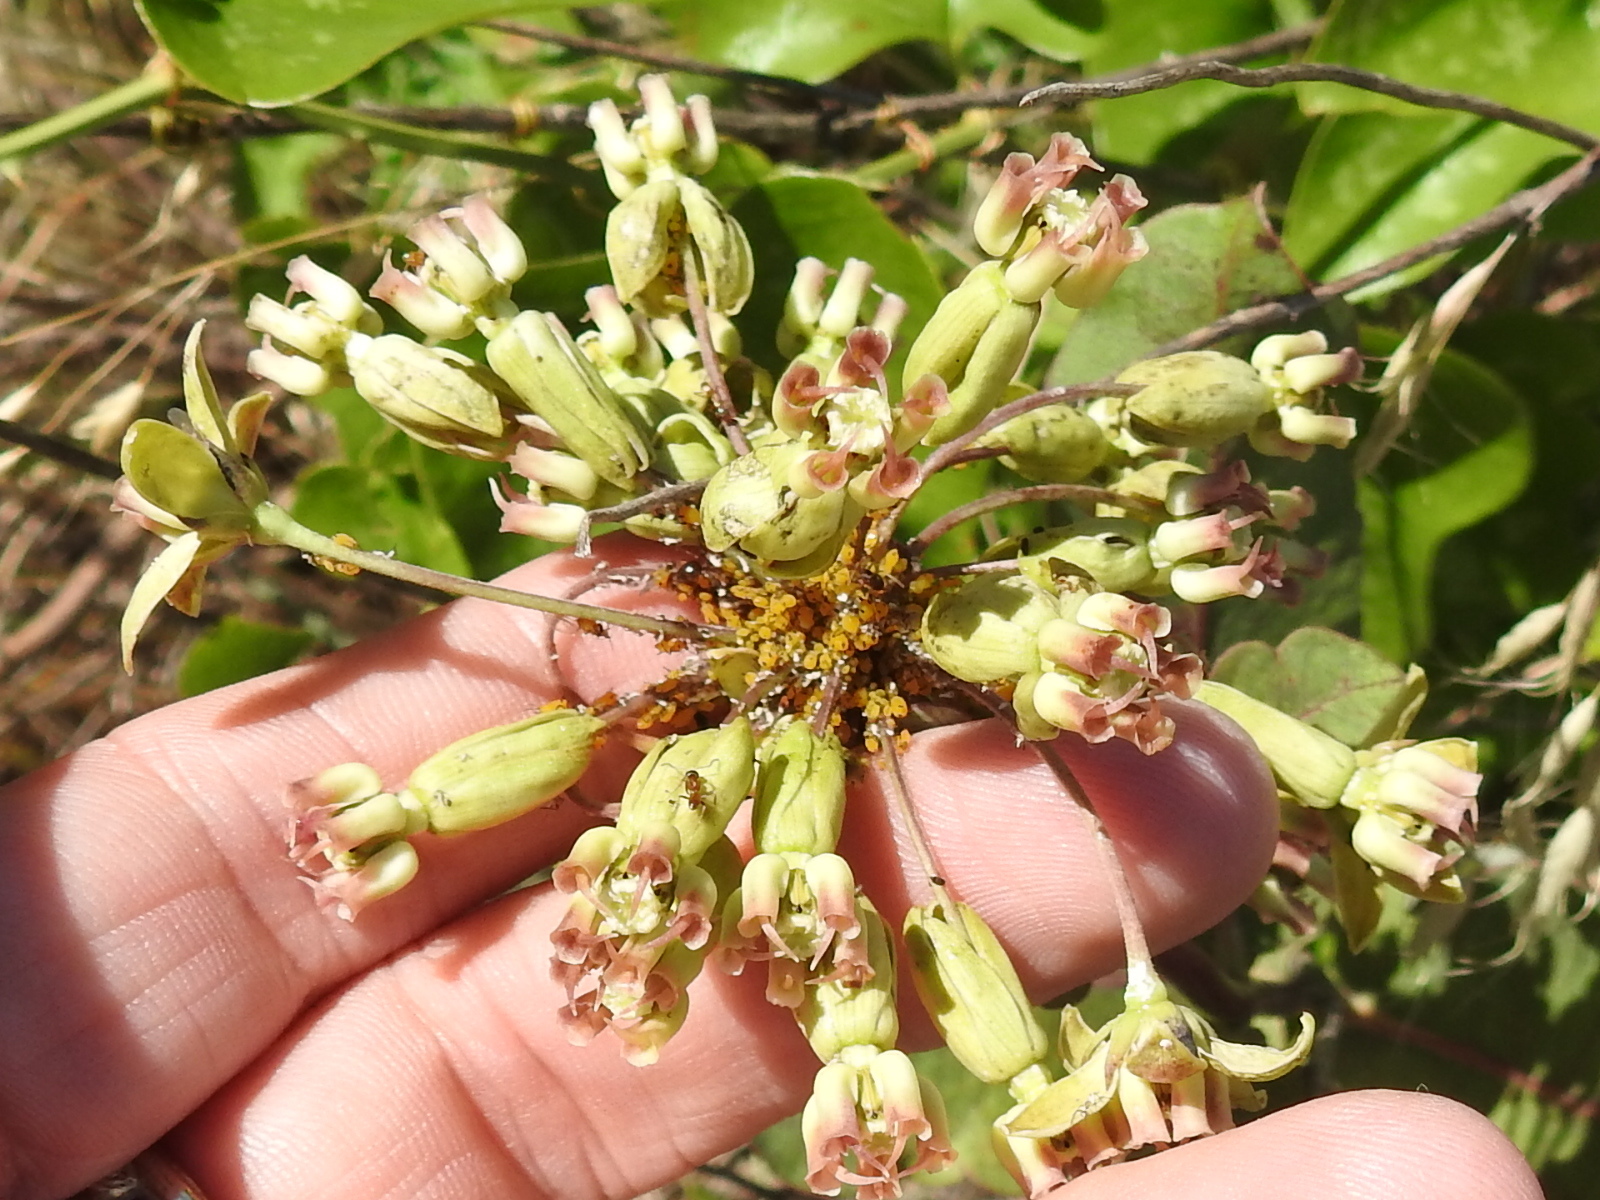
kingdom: Plantae
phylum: Tracheophyta
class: Magnoliopsida
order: Gentianales
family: Apocynaceae
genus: Asclepias
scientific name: Asclepias amplexicaulis
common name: Blunt-leaf milkweed
